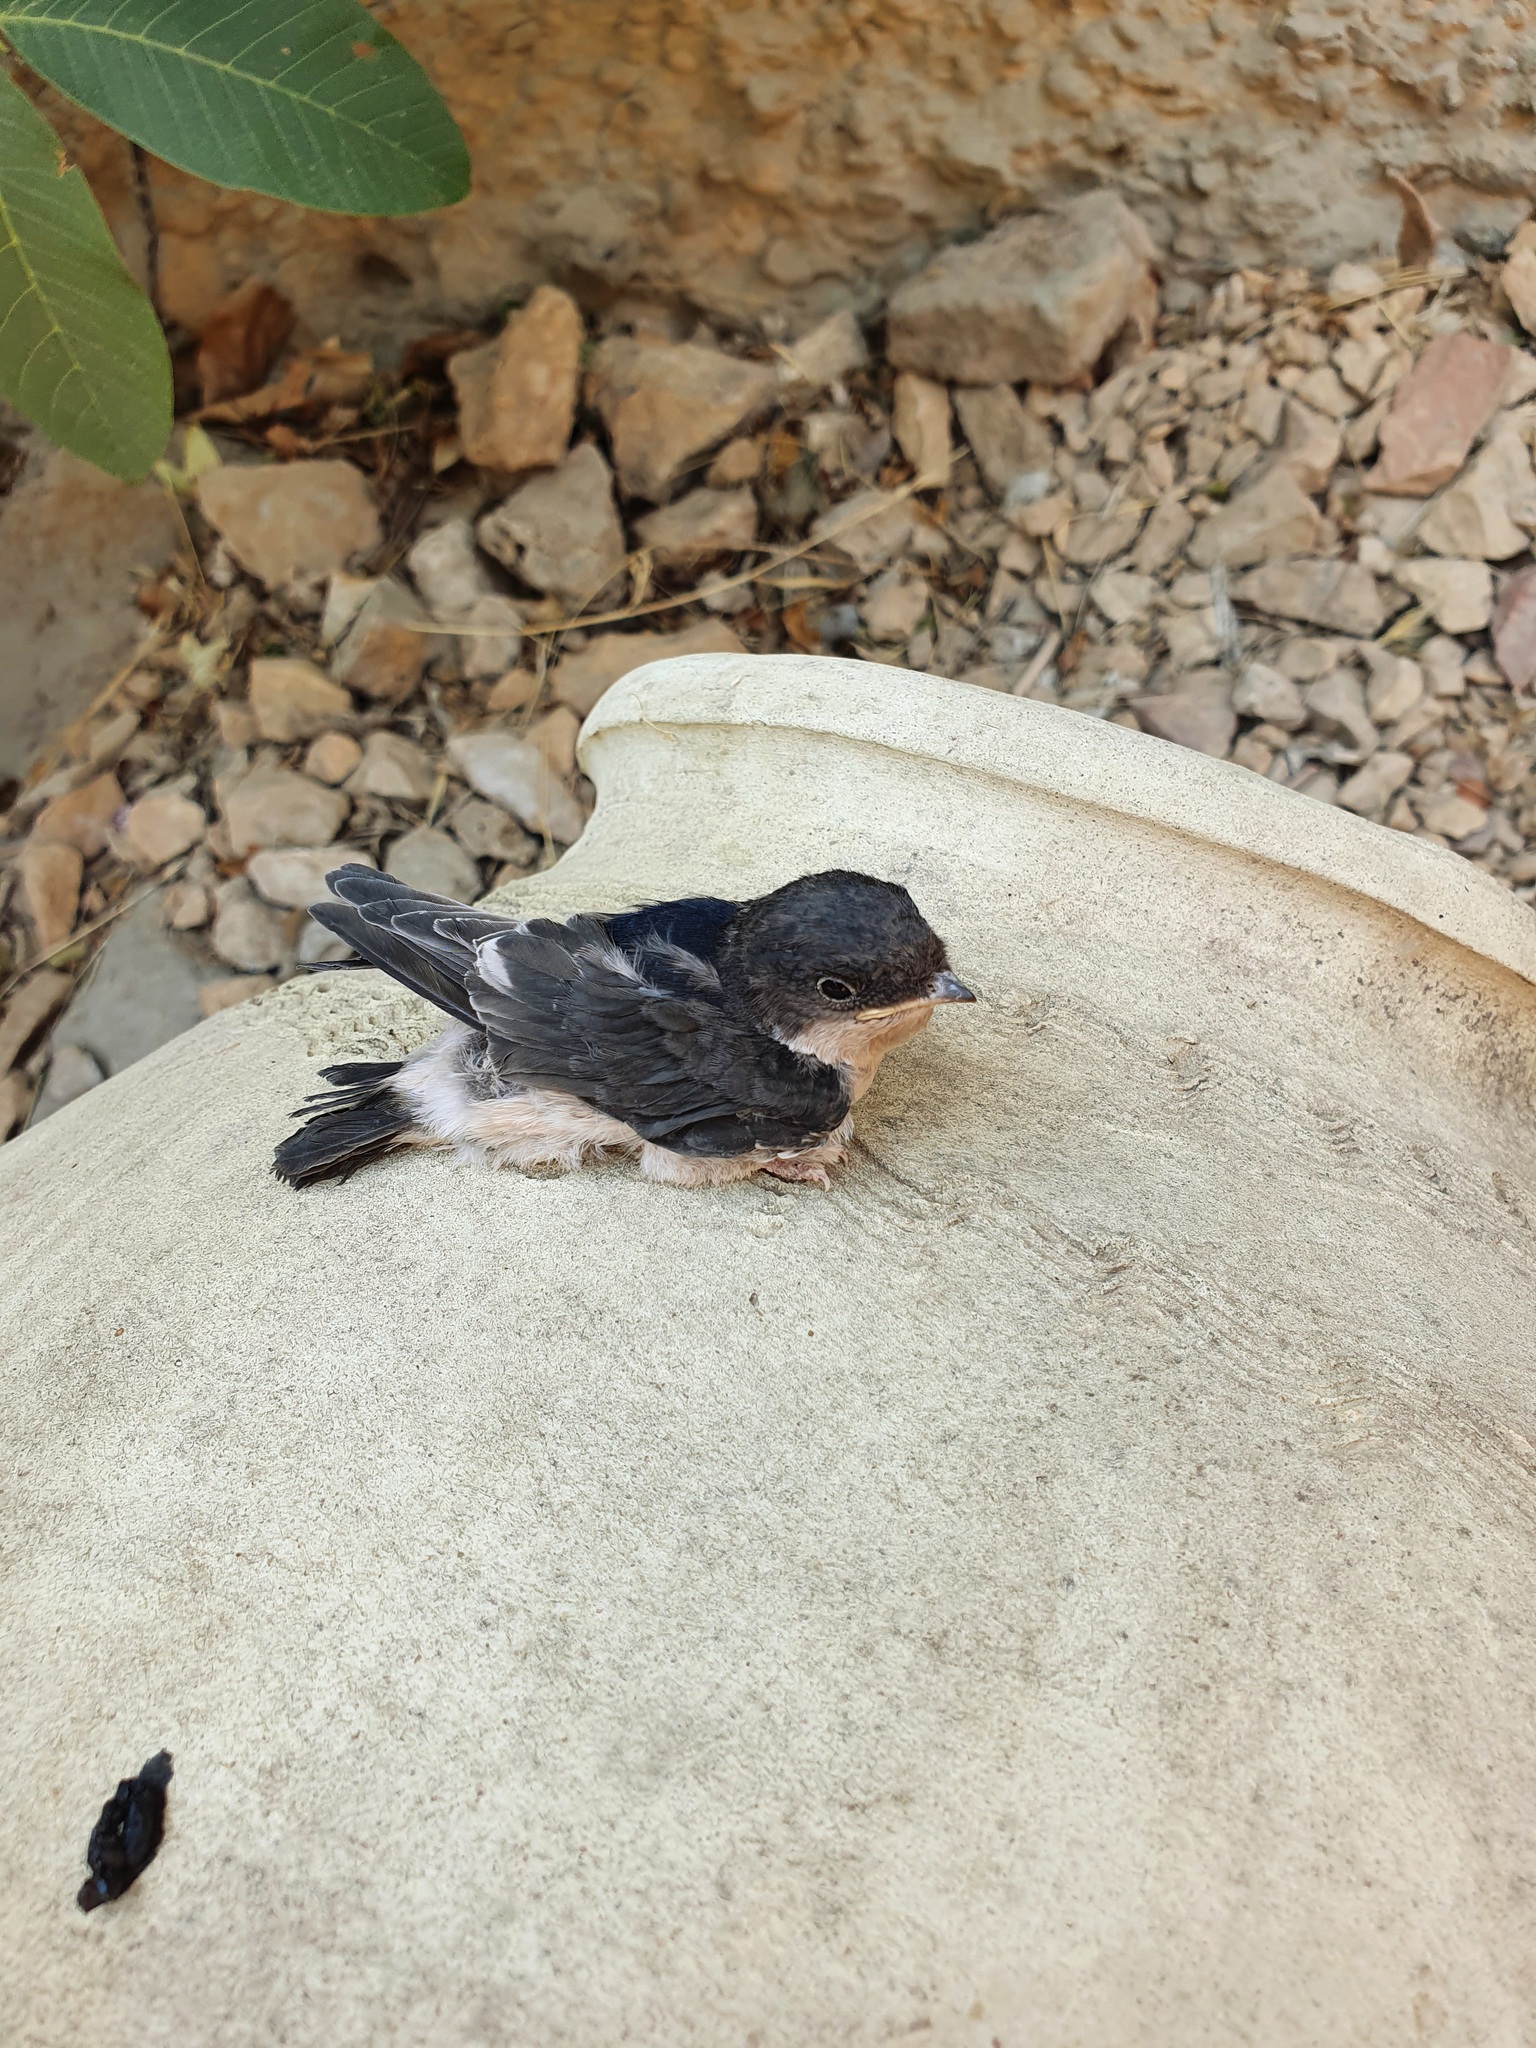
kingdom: Animalia
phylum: Chordata
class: Aves
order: Passeriformes
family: Hirundinidae
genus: Delichon
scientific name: Delichon urbicum
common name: Common house martin
